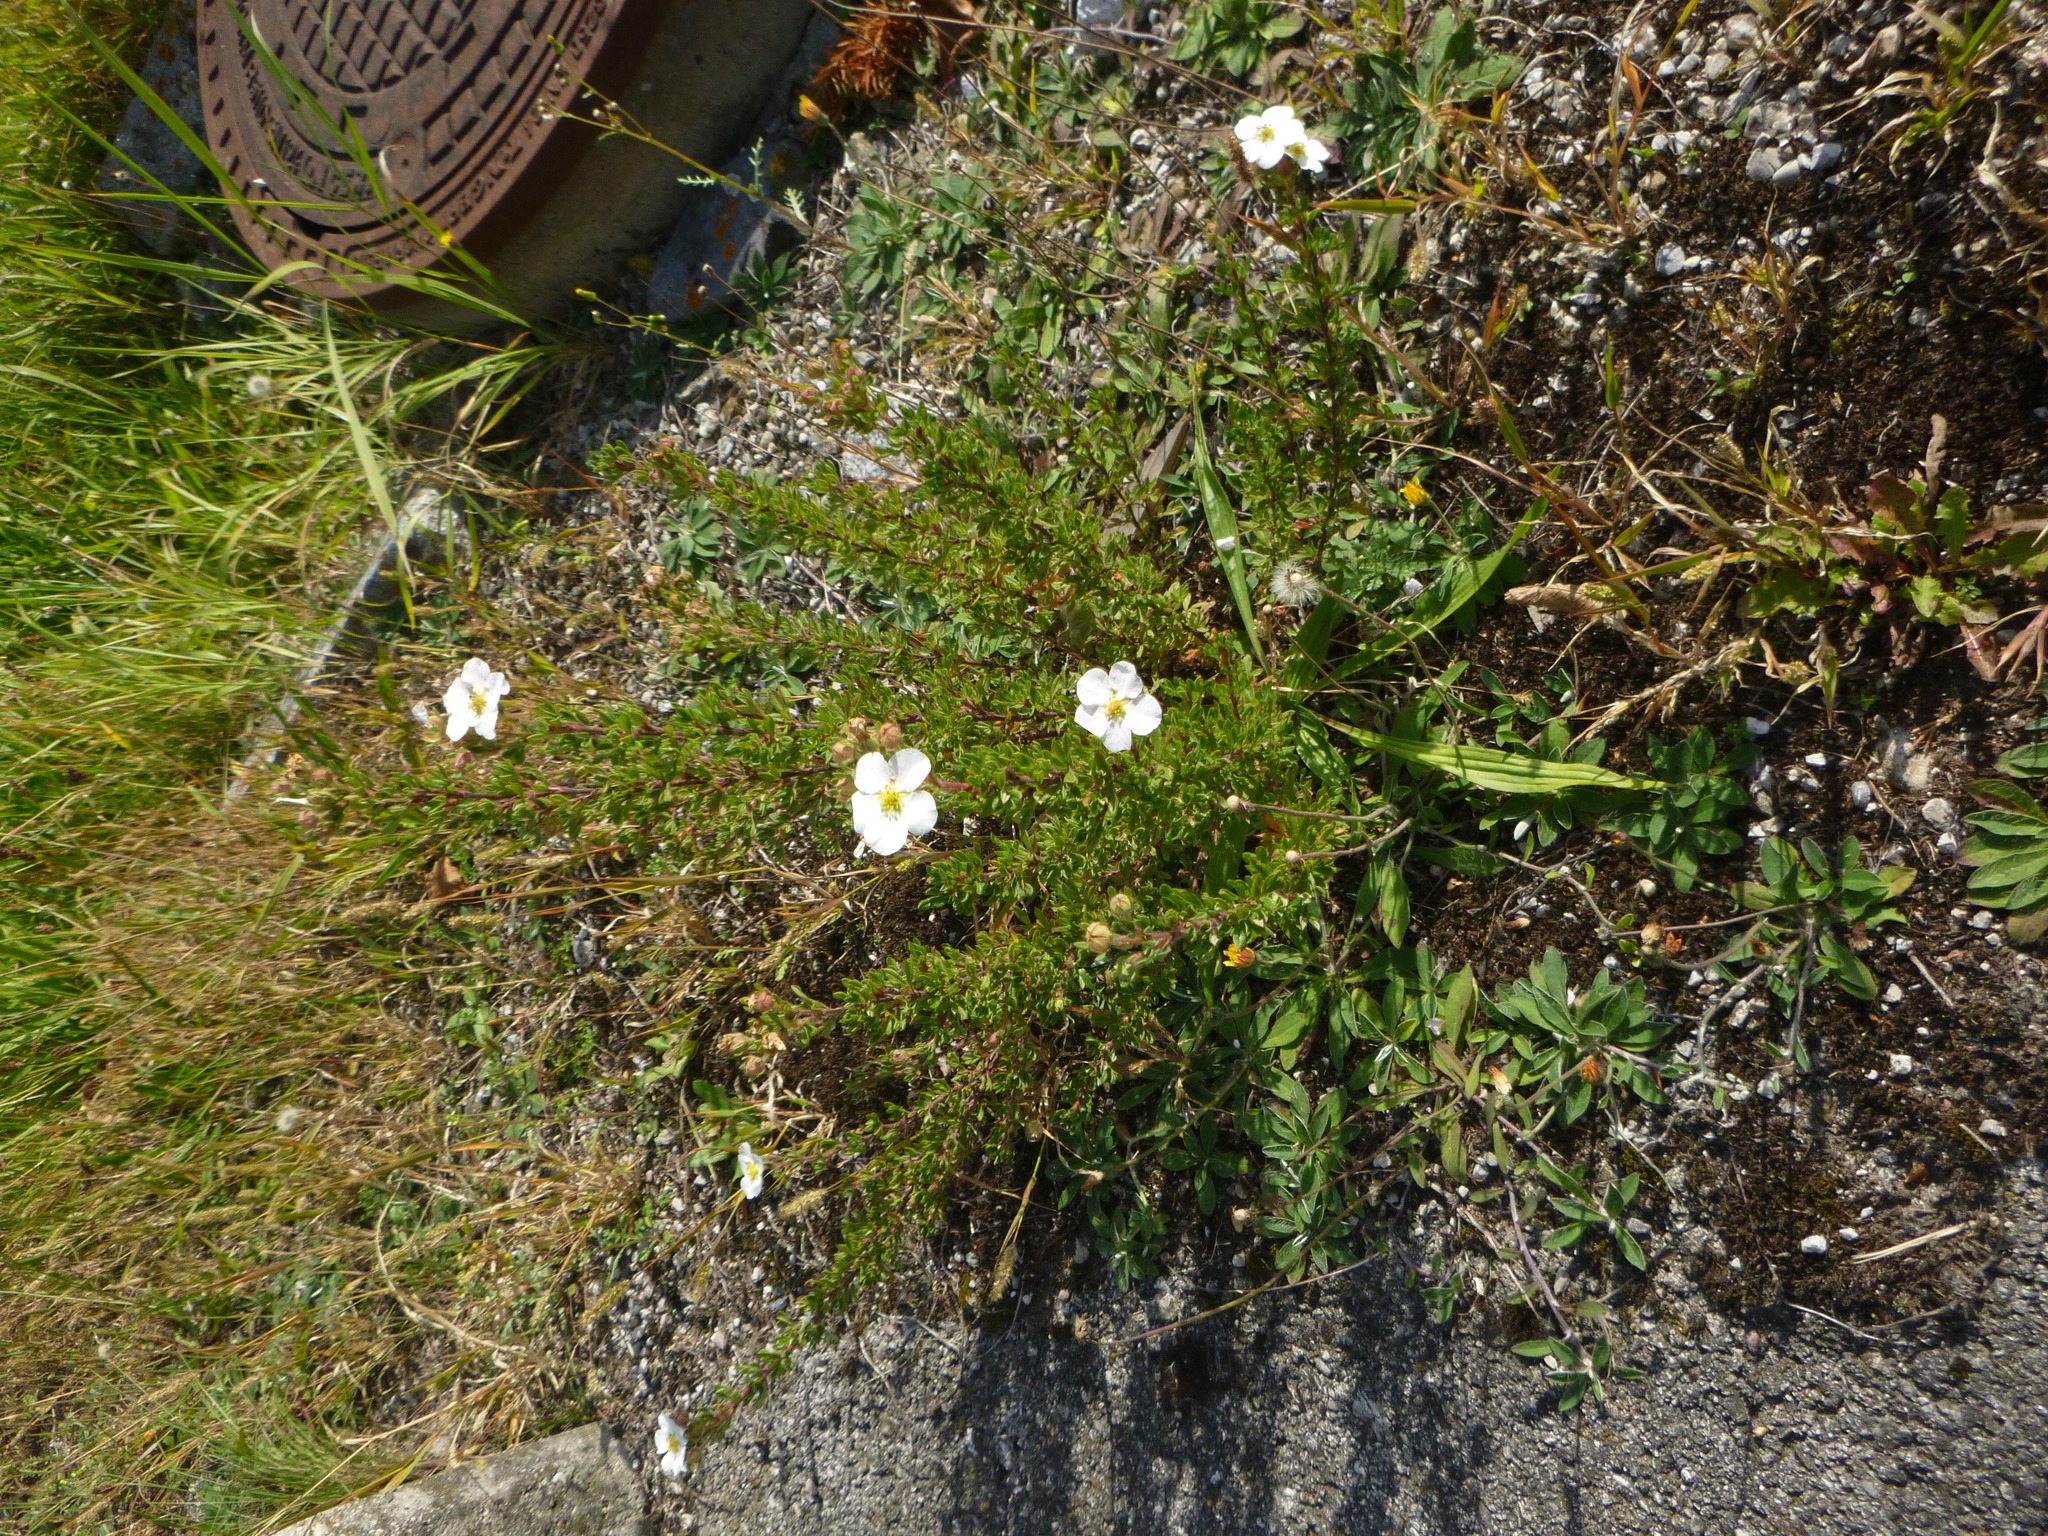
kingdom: Plantae
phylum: Tracheophyta
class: Magnoliopsida
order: Rosales
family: Rosaceae
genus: Dasiphora
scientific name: Dasiphora fruticosa
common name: Shrubby cinquefoil
